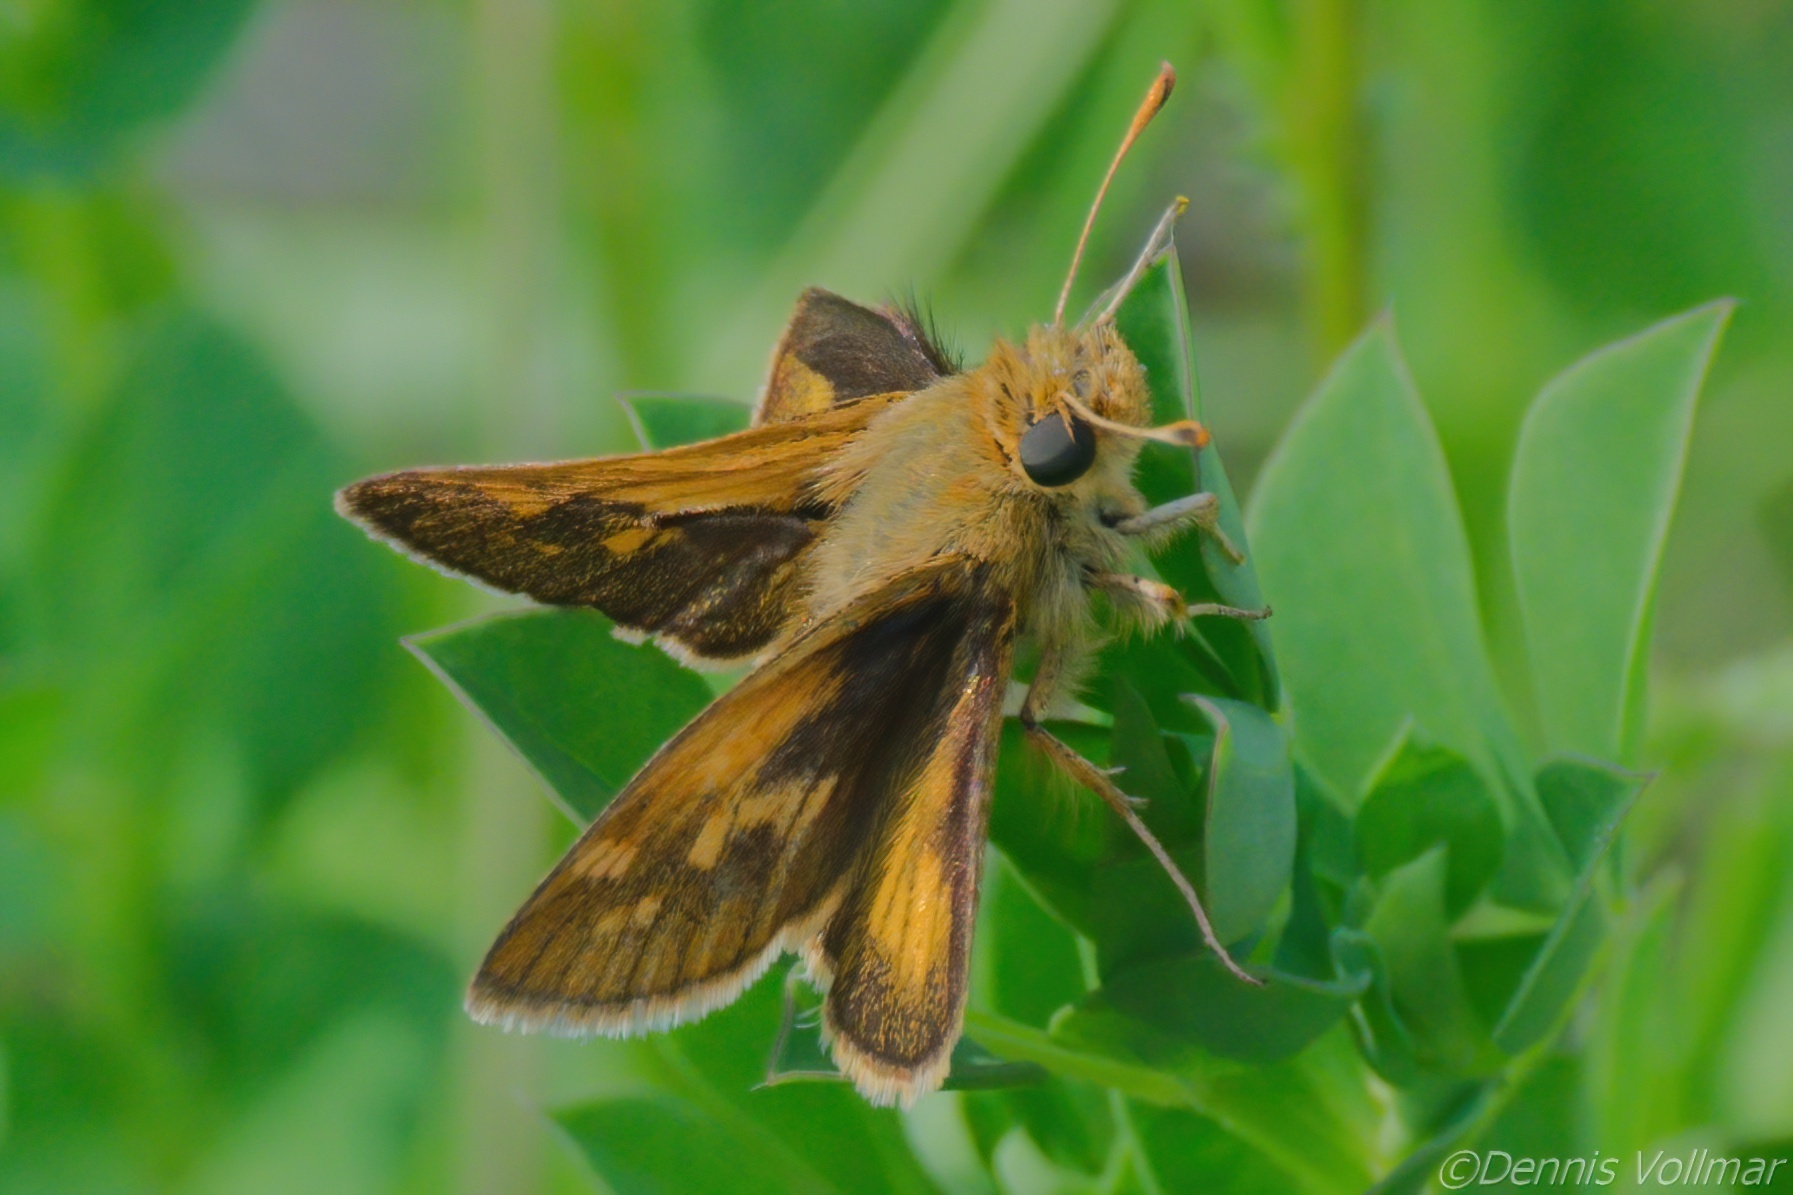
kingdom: Animalia
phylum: Arthropoda
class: Insecta
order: Lepidoptera
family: Hesperiidae
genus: Polites
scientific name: Polites coras
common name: Peck's skipper
